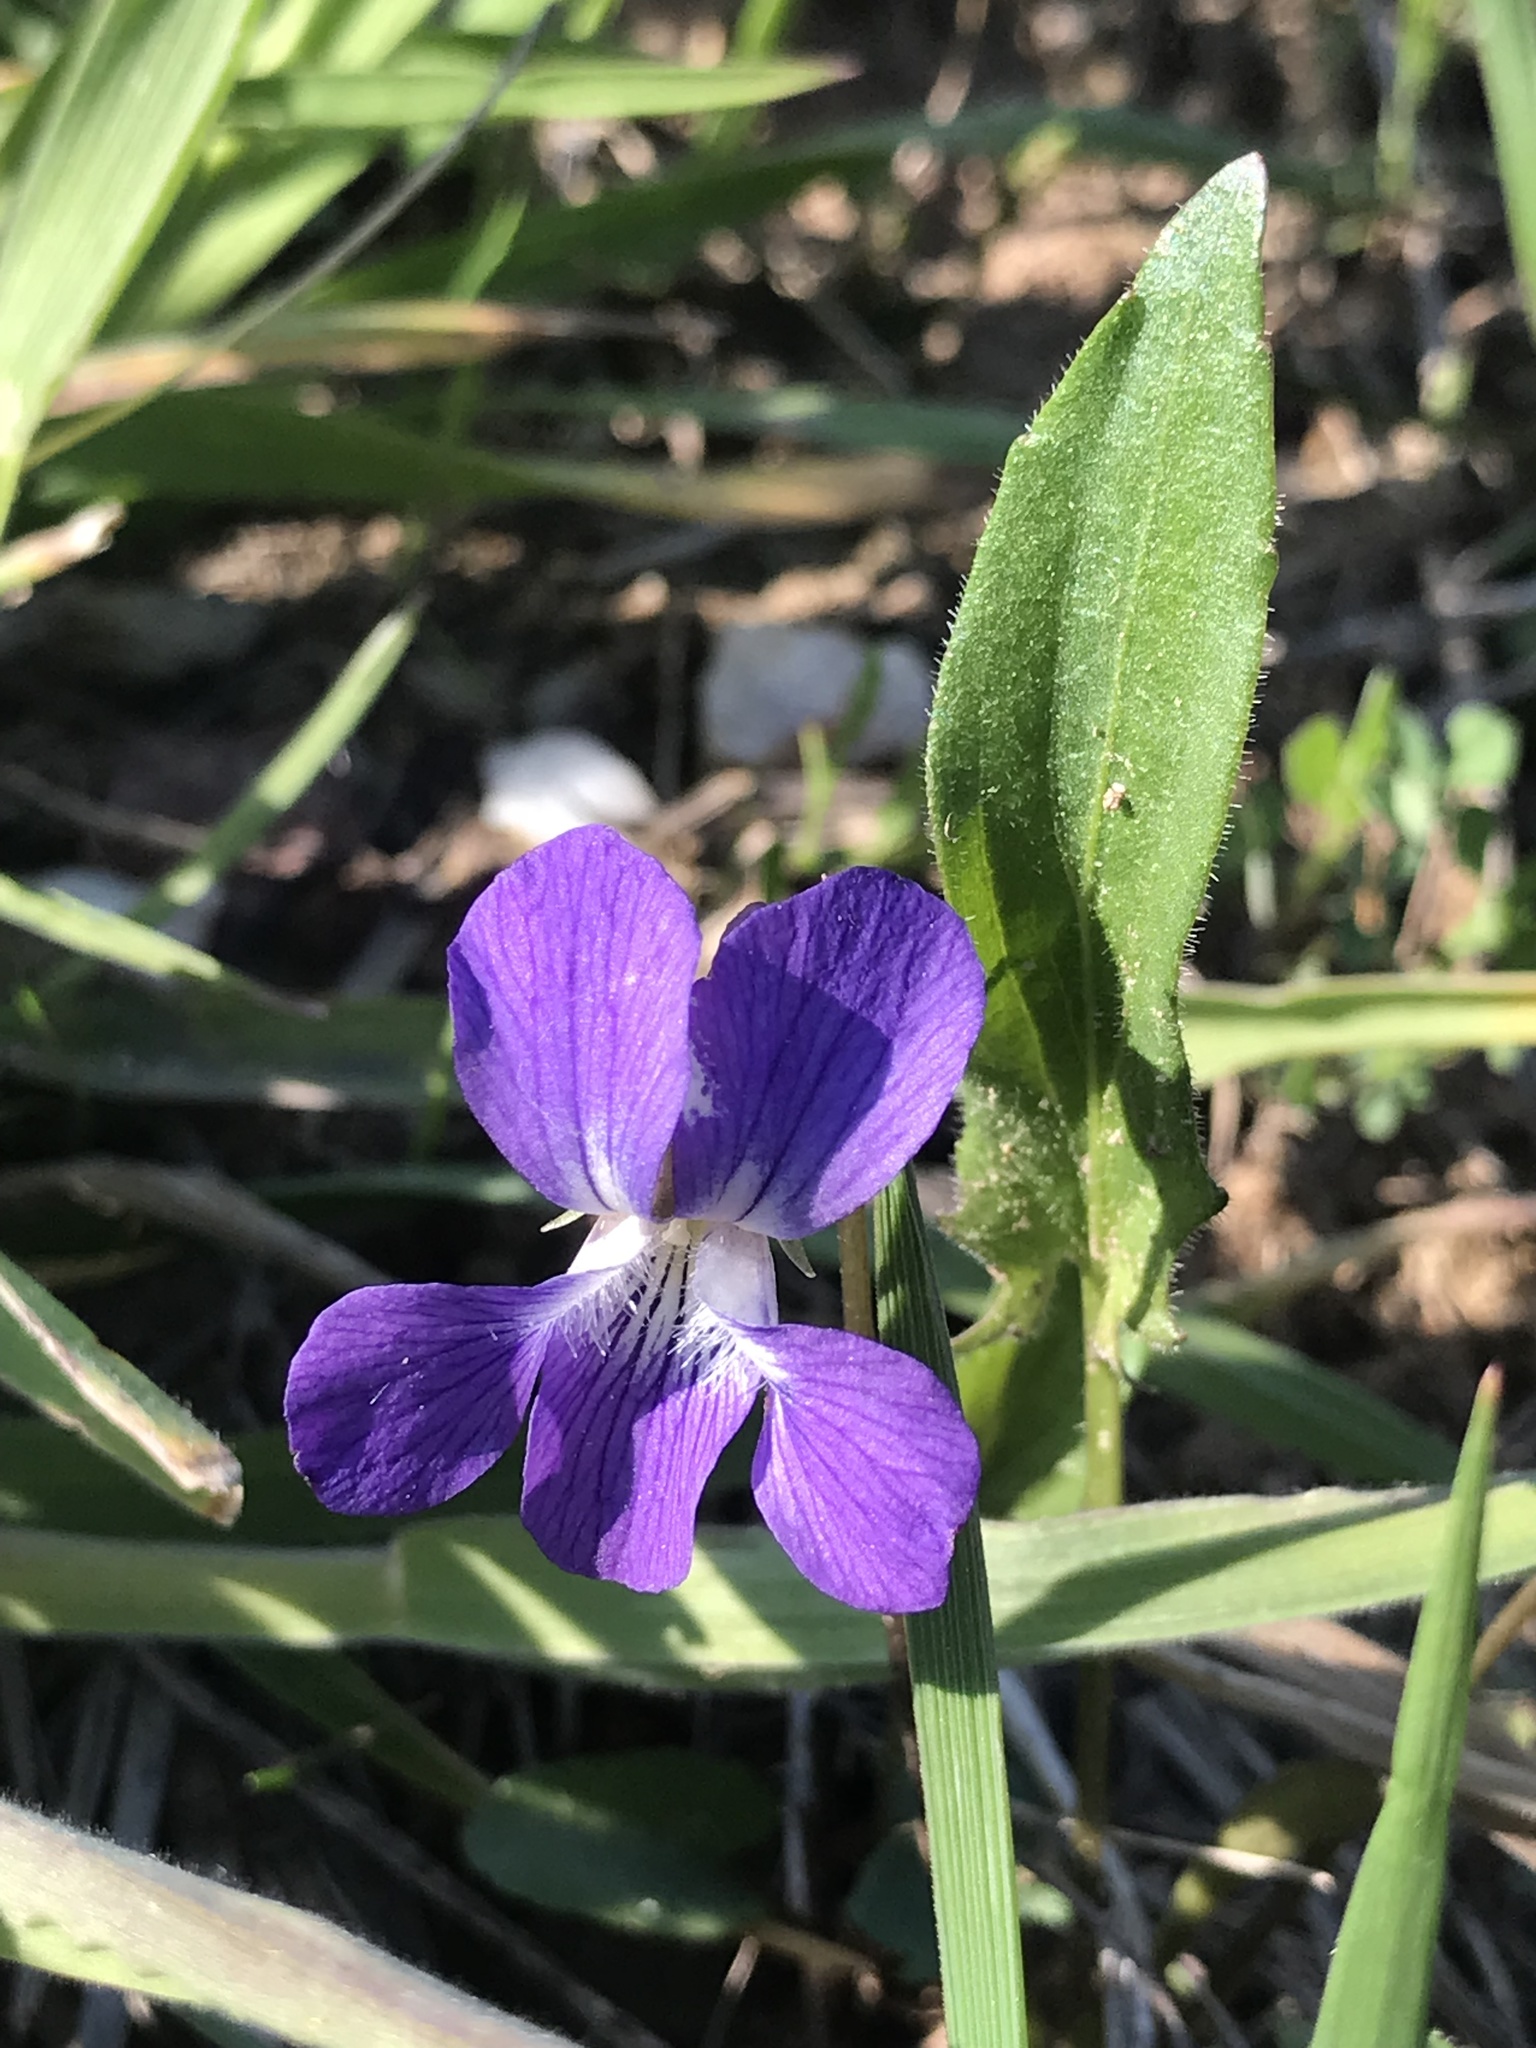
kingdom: Plantae
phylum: Tracheophyta
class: Magnoliopsida
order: Malpighiales
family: Violaceae
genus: Viola
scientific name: Viola sagittata
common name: Arrowhead violet
